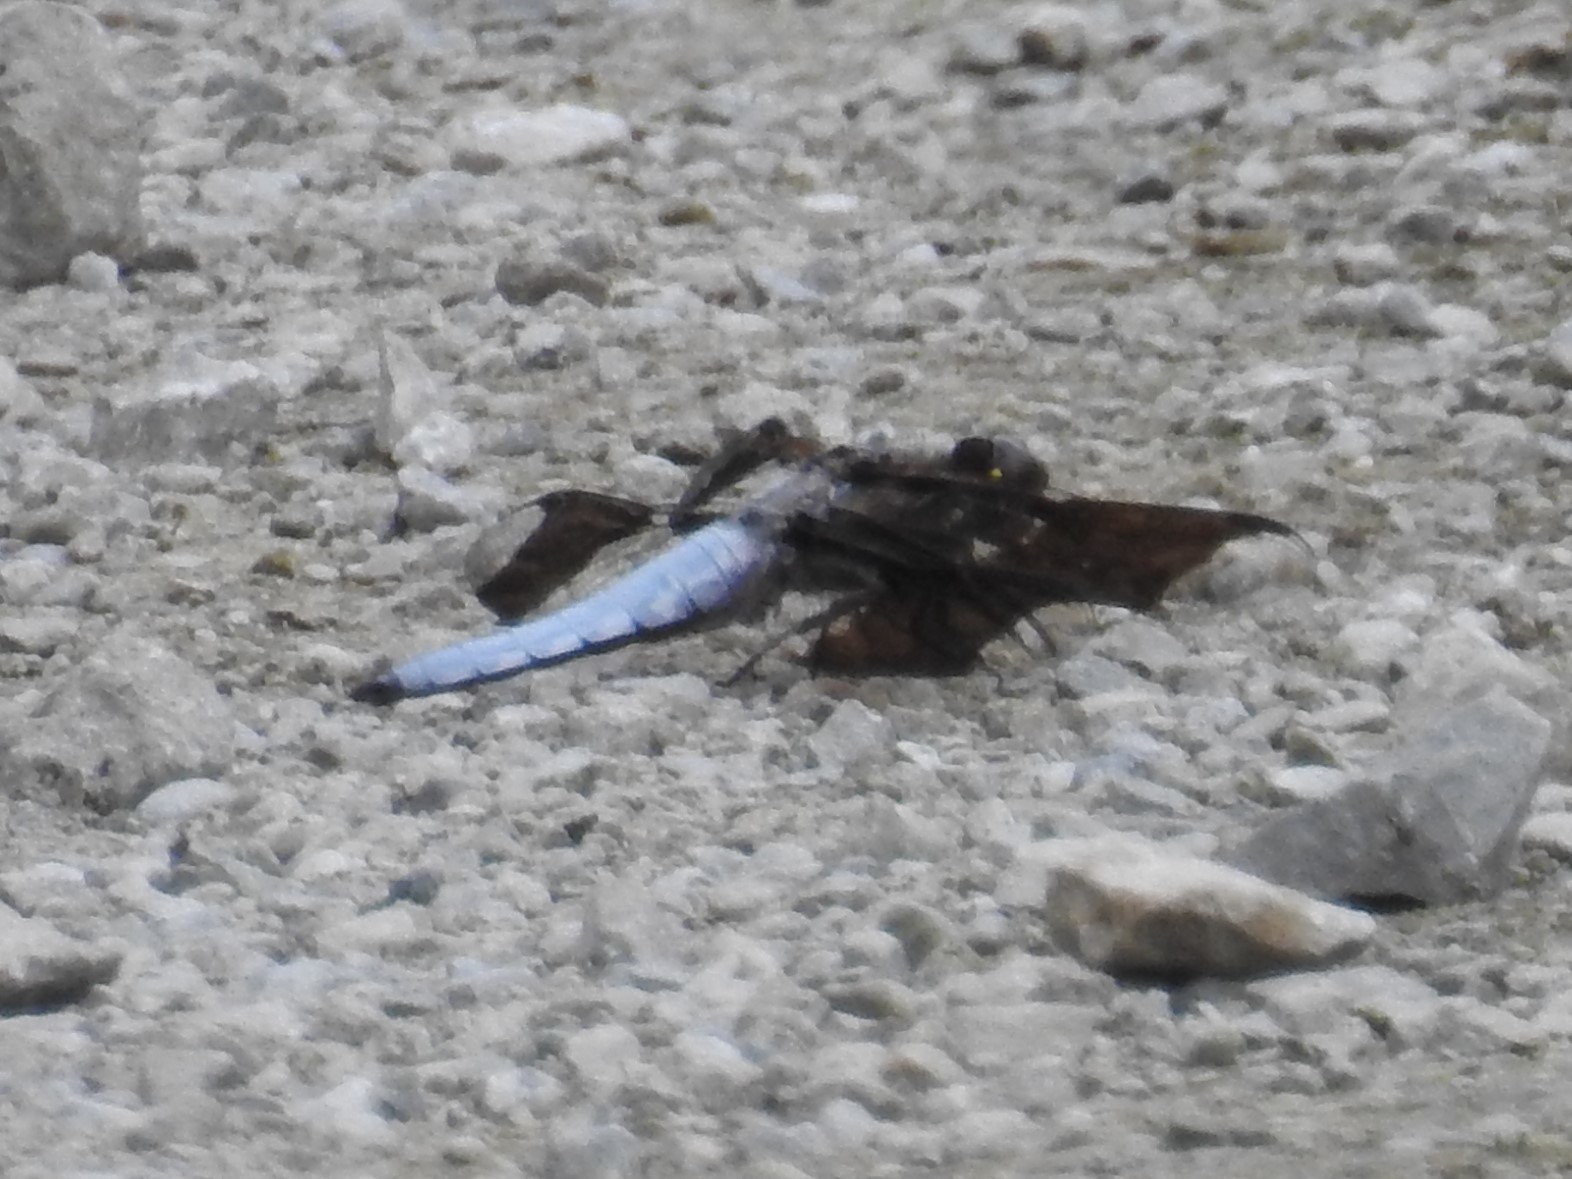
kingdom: Animalia
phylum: Arthropoda
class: Insecta
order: Odonata
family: Libellulidae
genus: Plathemis
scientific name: Plathemis lydia
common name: Common whitetail
